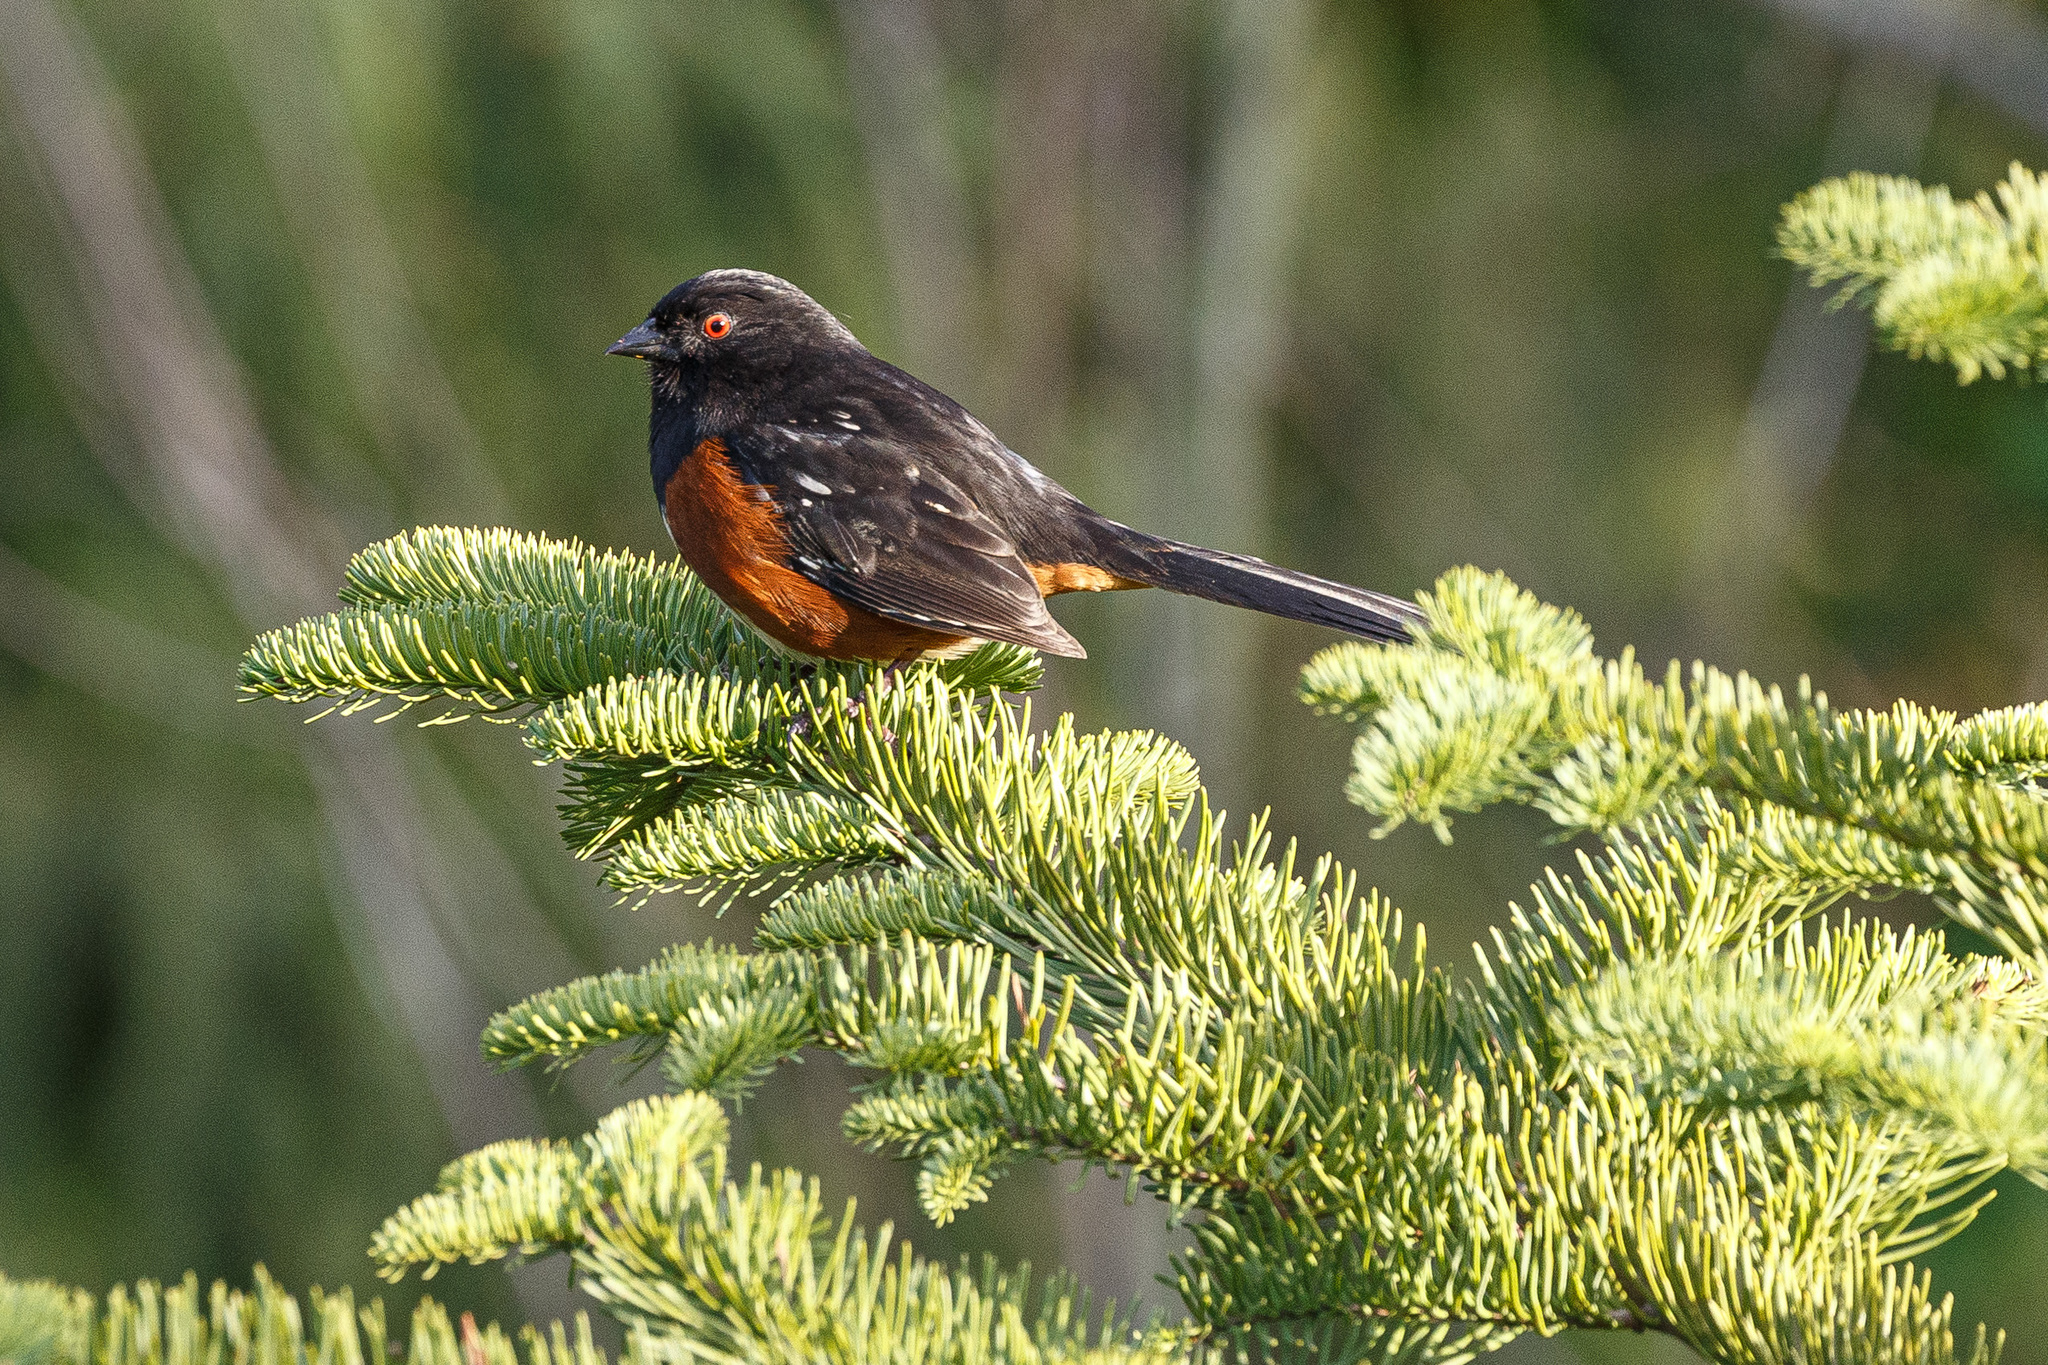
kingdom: Animalia
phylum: Chordata
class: Aves
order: Passeriformes
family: Passerellidae
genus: Pipilo
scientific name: Pipilo maculatus
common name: Spotted towhee
